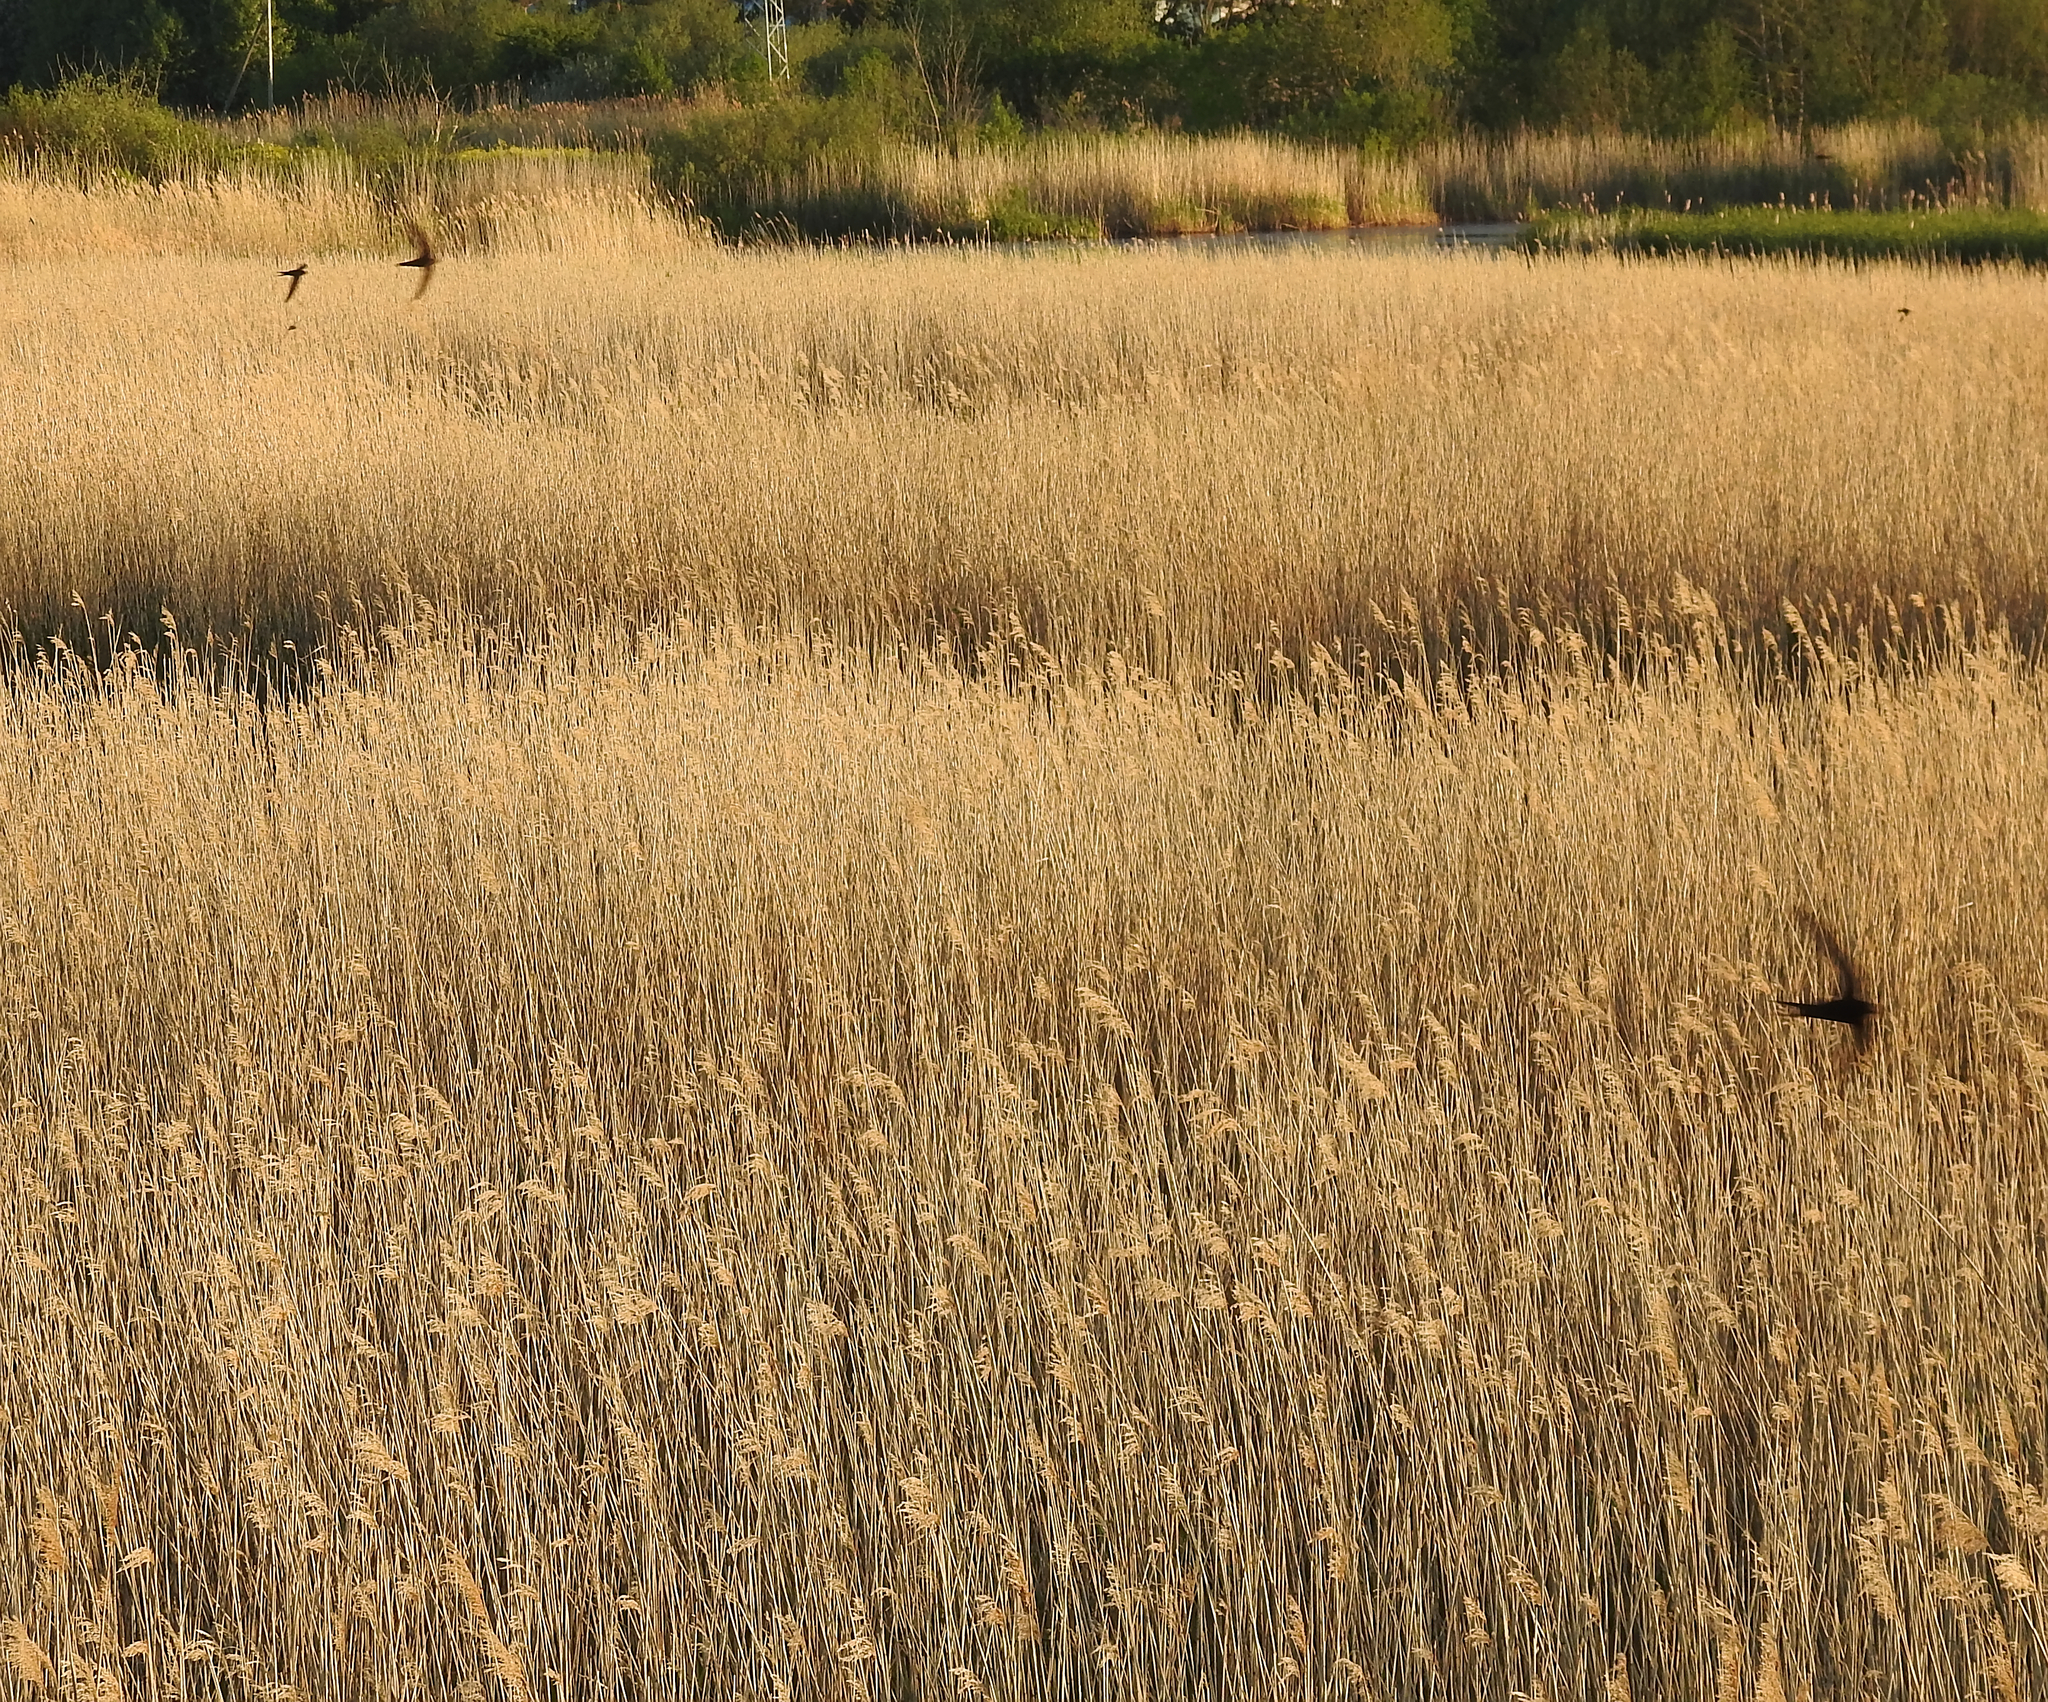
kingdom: Animalia
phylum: Chordata
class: Aves
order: Apodiformes
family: Apodidae
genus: Apus
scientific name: Apus apus
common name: Common swift
